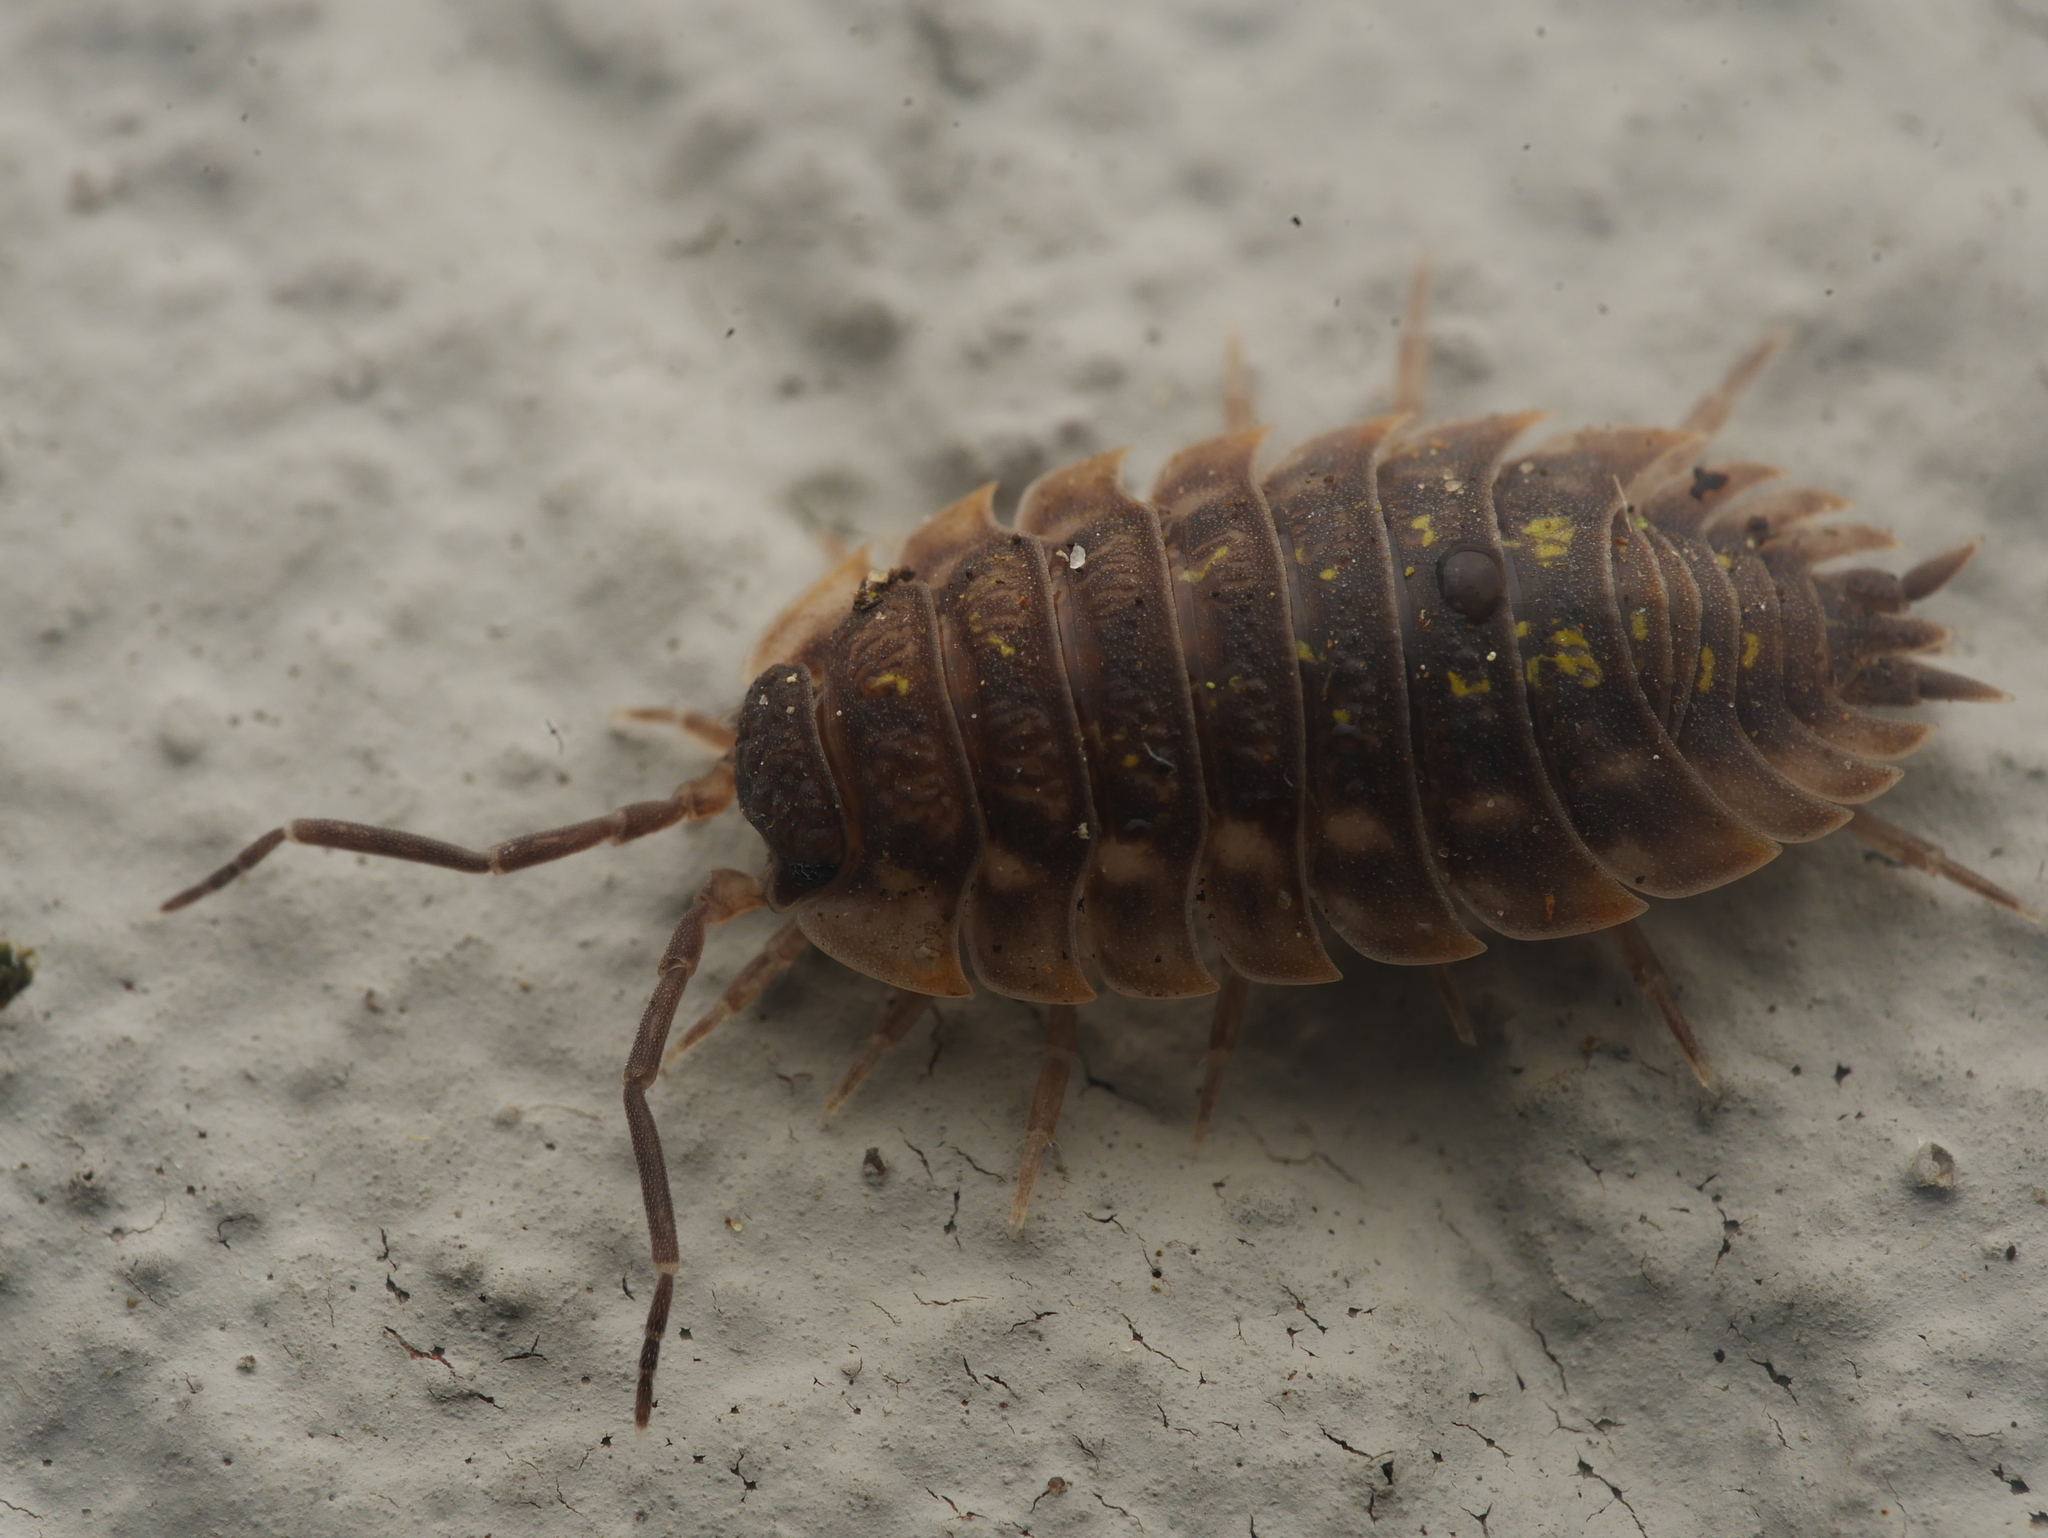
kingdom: Animalia
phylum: Arthropoda
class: Malacostraca
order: Isopoda
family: Oniscidae
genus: Oniscus
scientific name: Oniscus asellus
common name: Common shiny woodlouse
